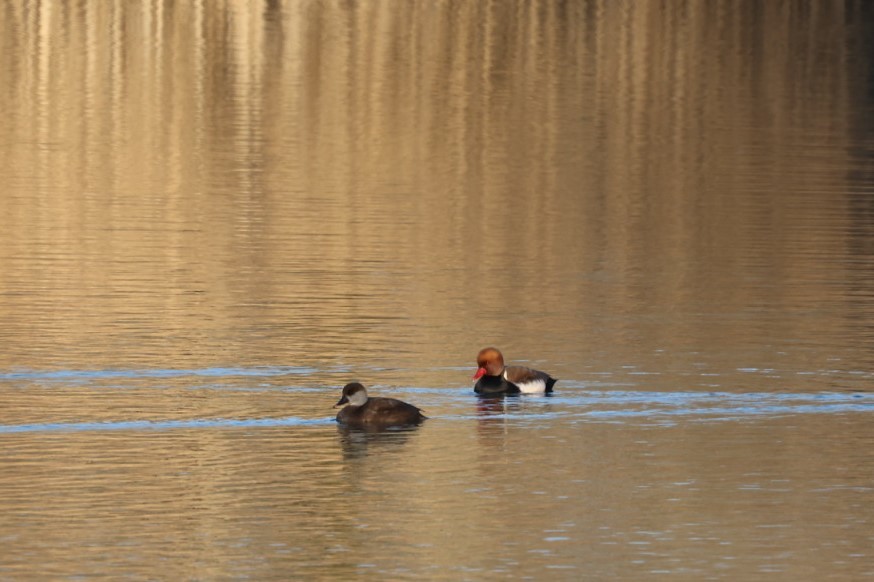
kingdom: Animalia
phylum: Chordata
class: Aves
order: Anseriformes
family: Anatidae
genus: Netta
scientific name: Netta rufina
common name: Red-crested pochard
